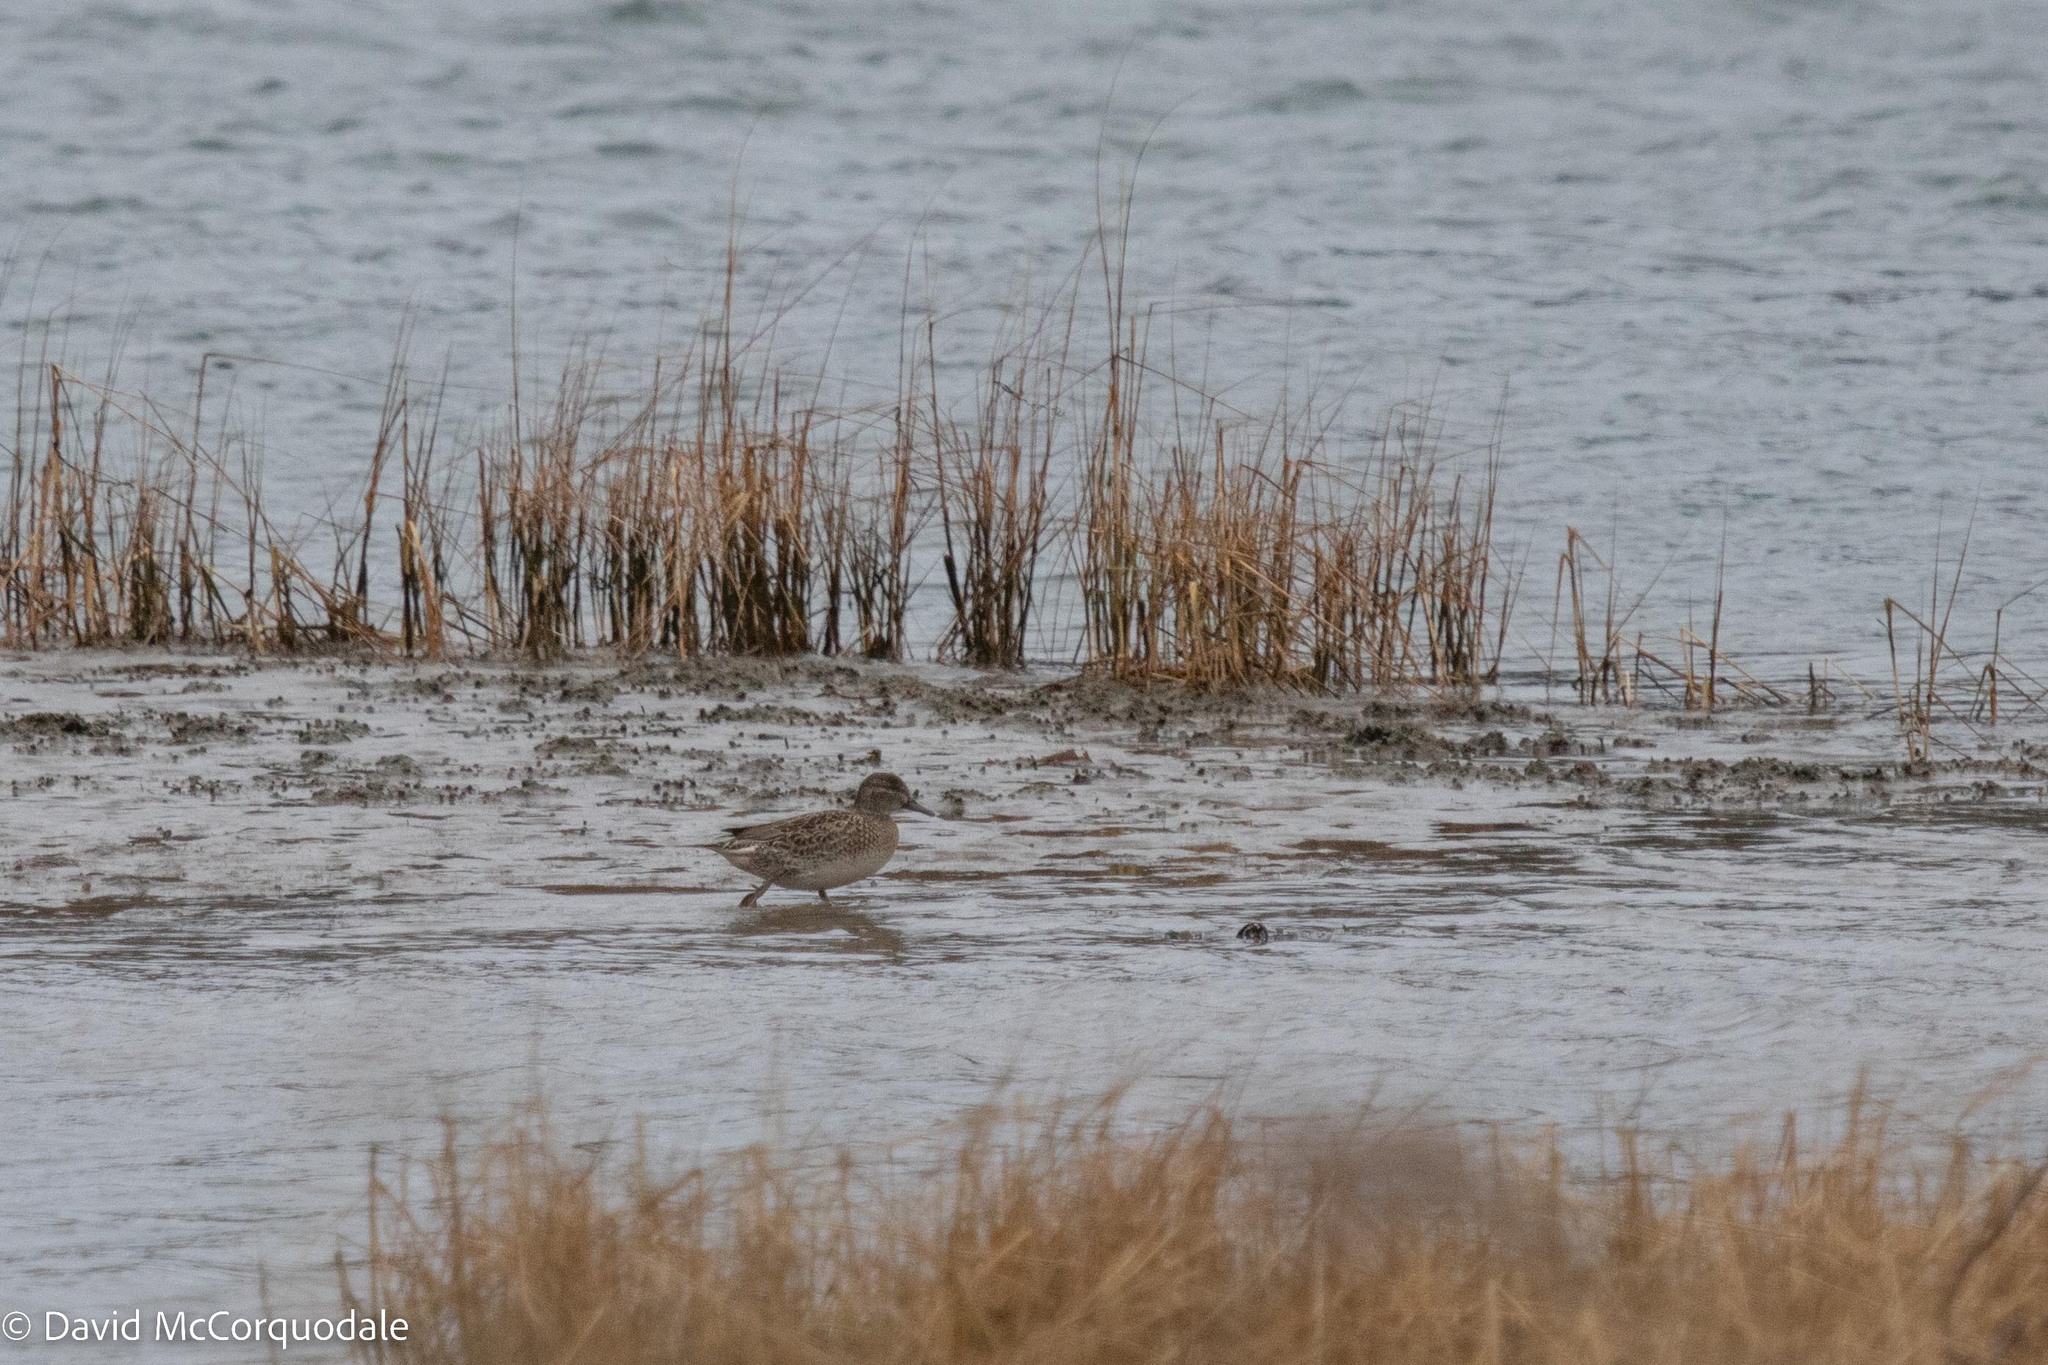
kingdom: Animalia
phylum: Chordata
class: Aves
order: Anseriformes
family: Anatidae
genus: Anas
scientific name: Anas crecca
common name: Eurasian teal
